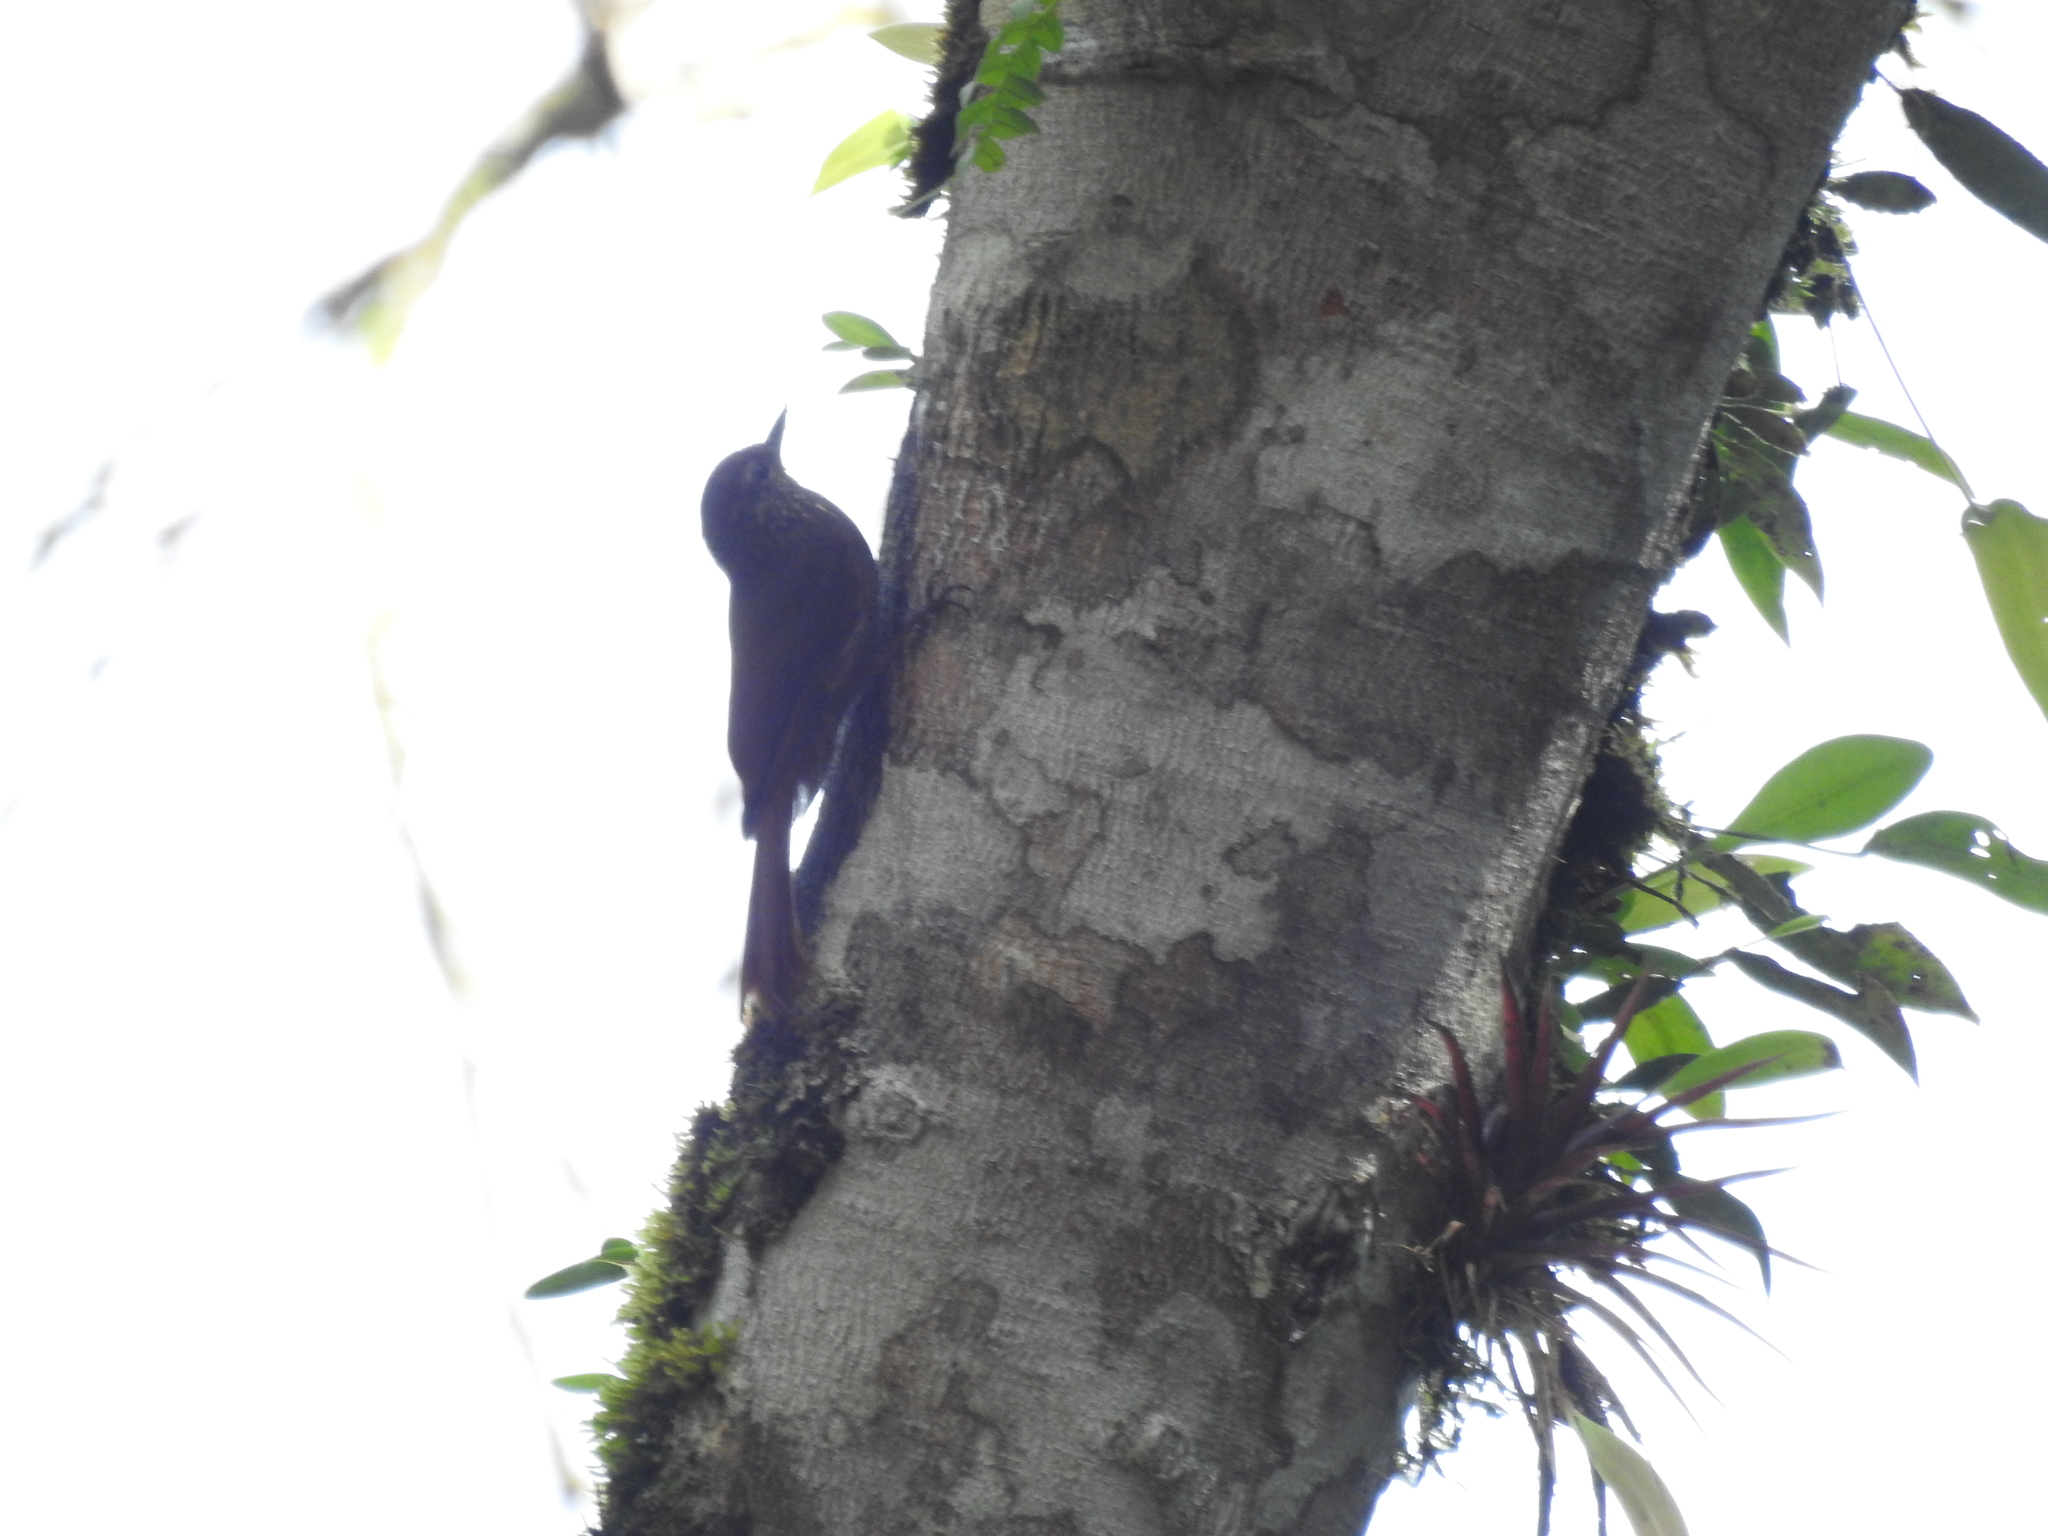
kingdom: Animalia
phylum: Chordata
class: Aves
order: Passeriformes
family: Furnariidae
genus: Glyphorynchus
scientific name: Glyphorynchus spirurus
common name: Wedge-billed woodcreeper
